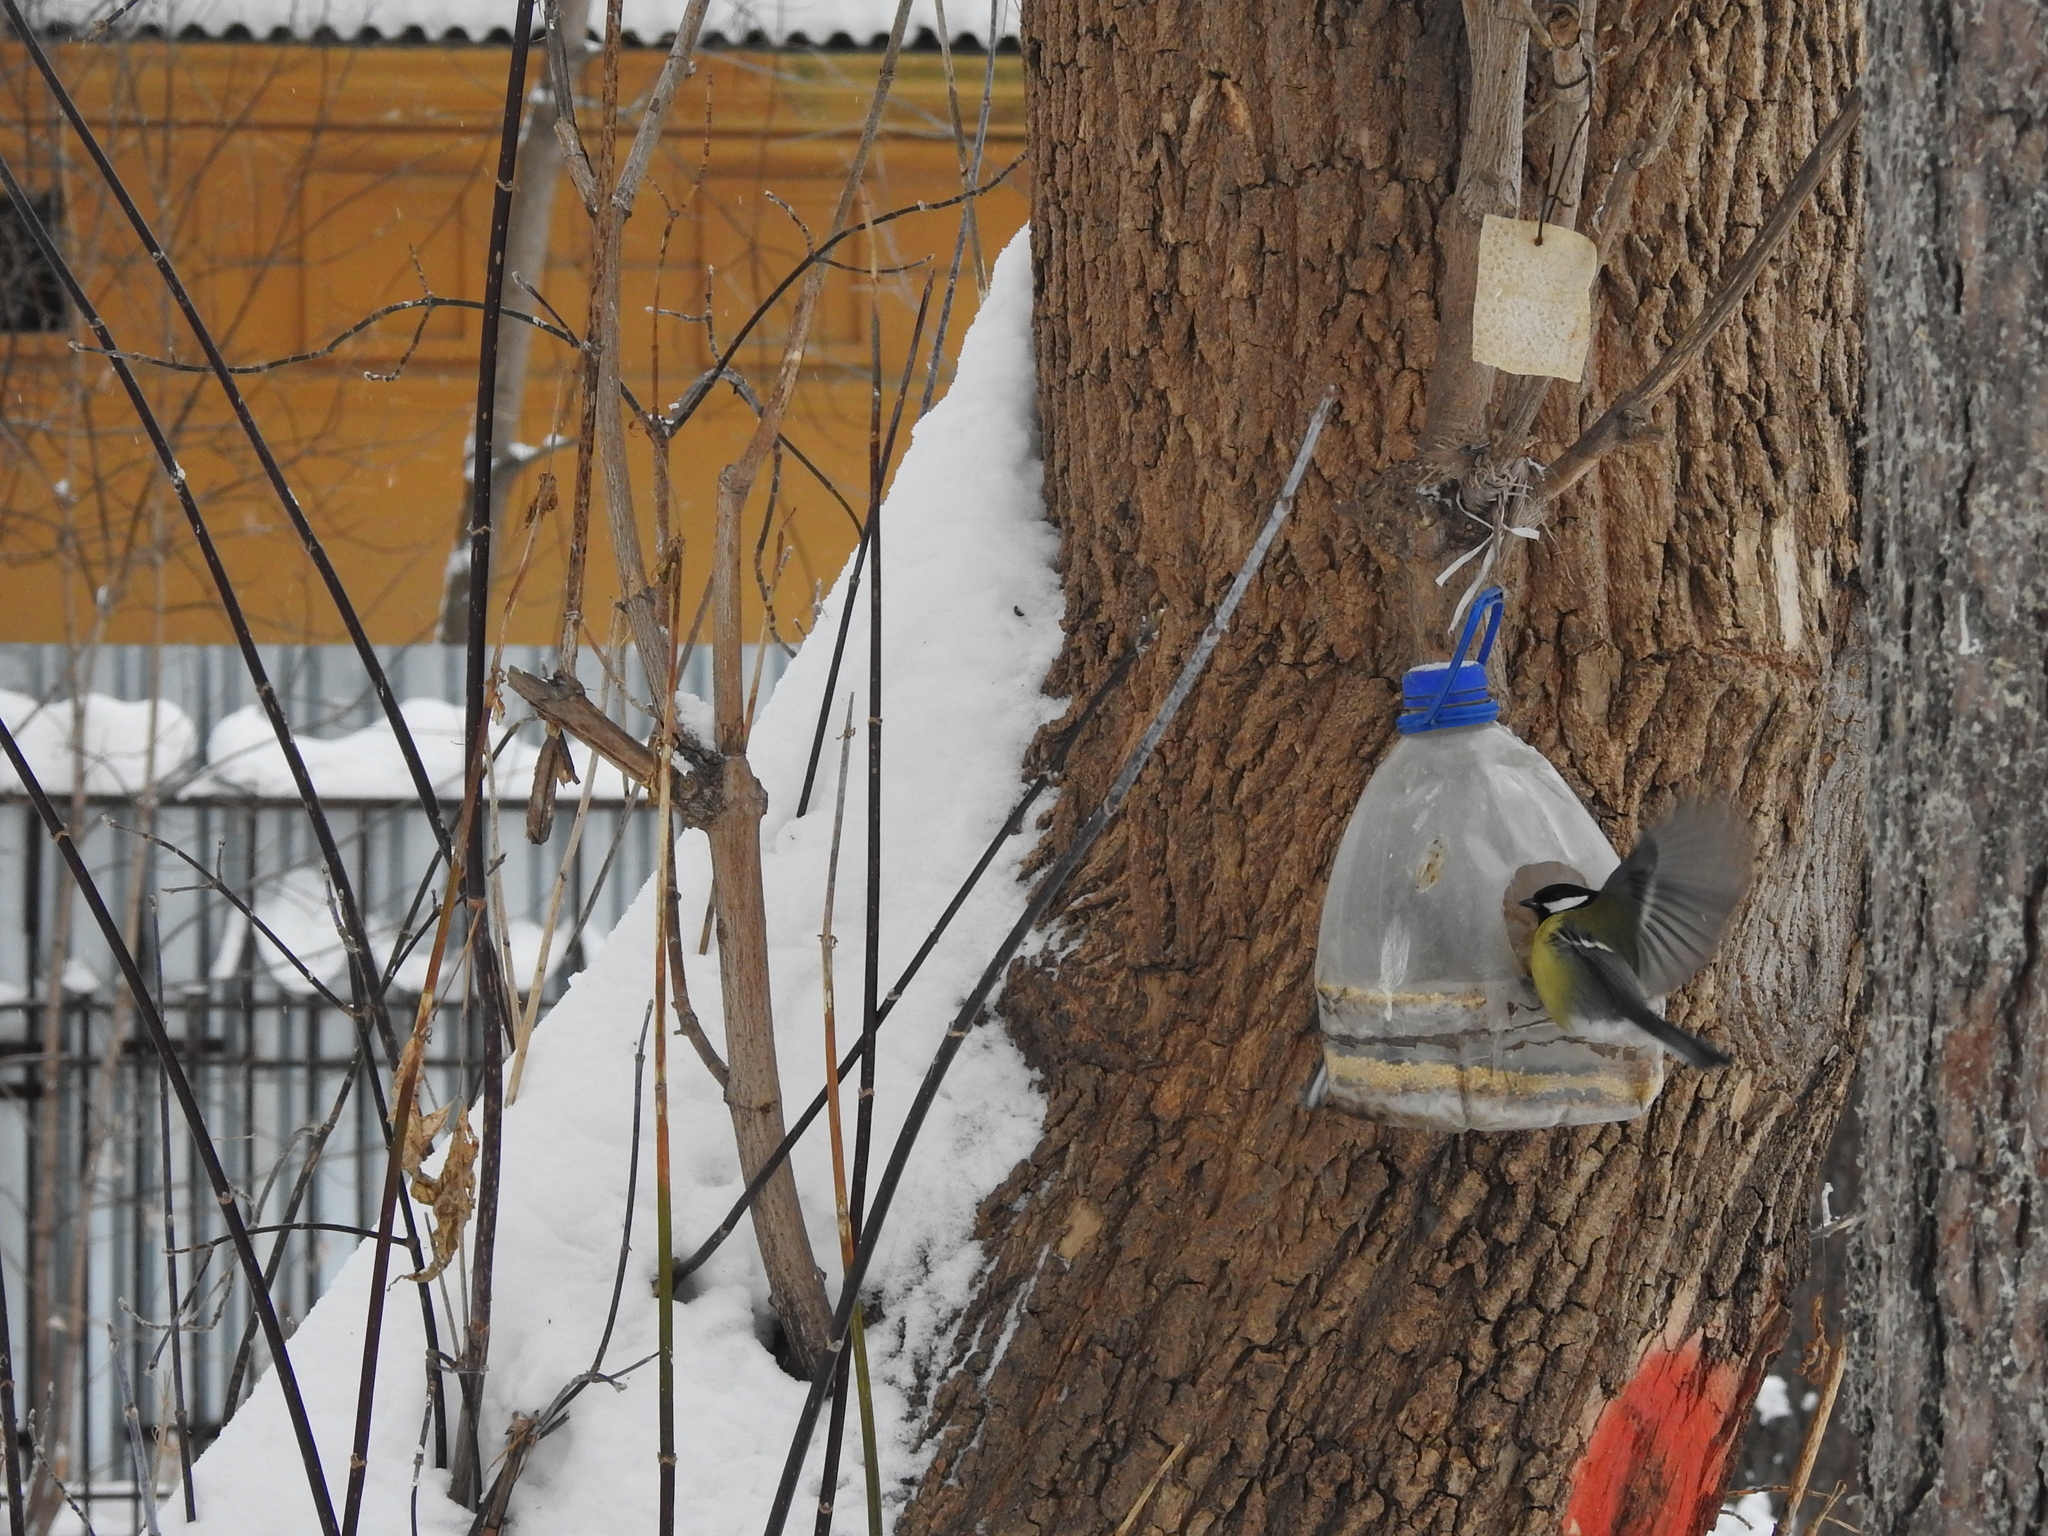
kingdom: Animalia
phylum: Chordata
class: Aves
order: Passeriformes
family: Paridae
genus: Parus
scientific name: Parus major
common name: Great tit
